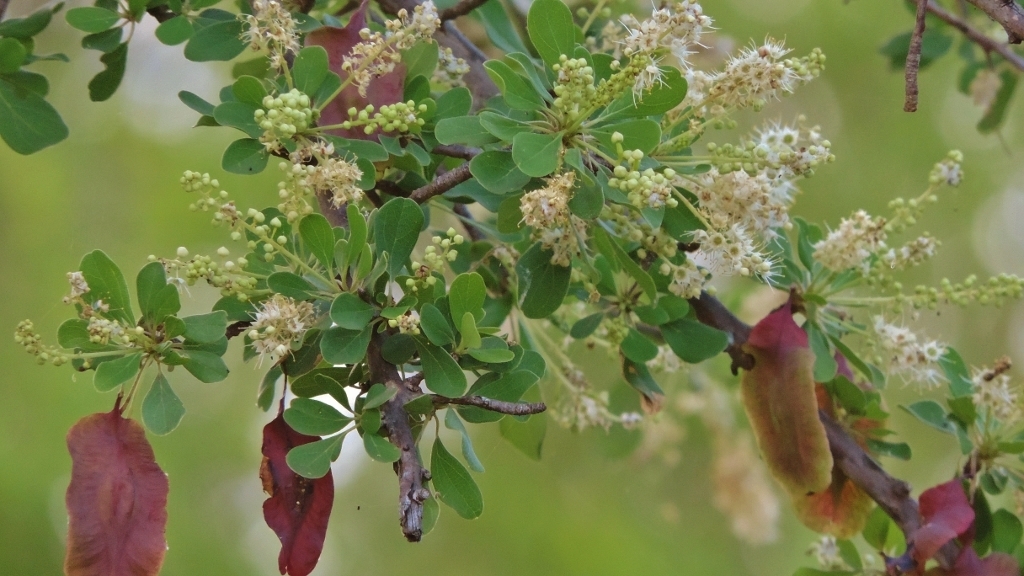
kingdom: Plantae
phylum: Tracheophyta
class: Magnoliopsida
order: Myrtales
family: Combretaceae
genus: Terminalia
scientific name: Terminalia prunioides
